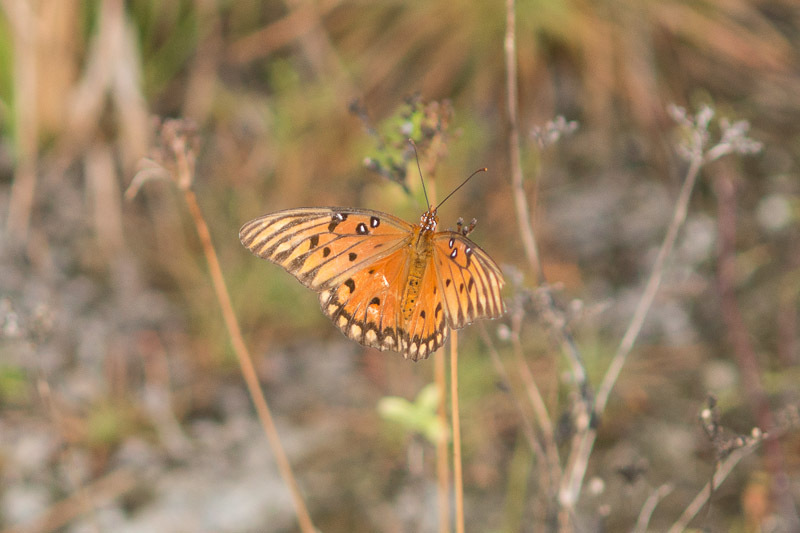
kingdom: Animalia
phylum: Arthropoda
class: Insecta
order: Lepidoptera
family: Nymphalidae
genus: Dione
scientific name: Dione vanillae
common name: Gulf fritillary
